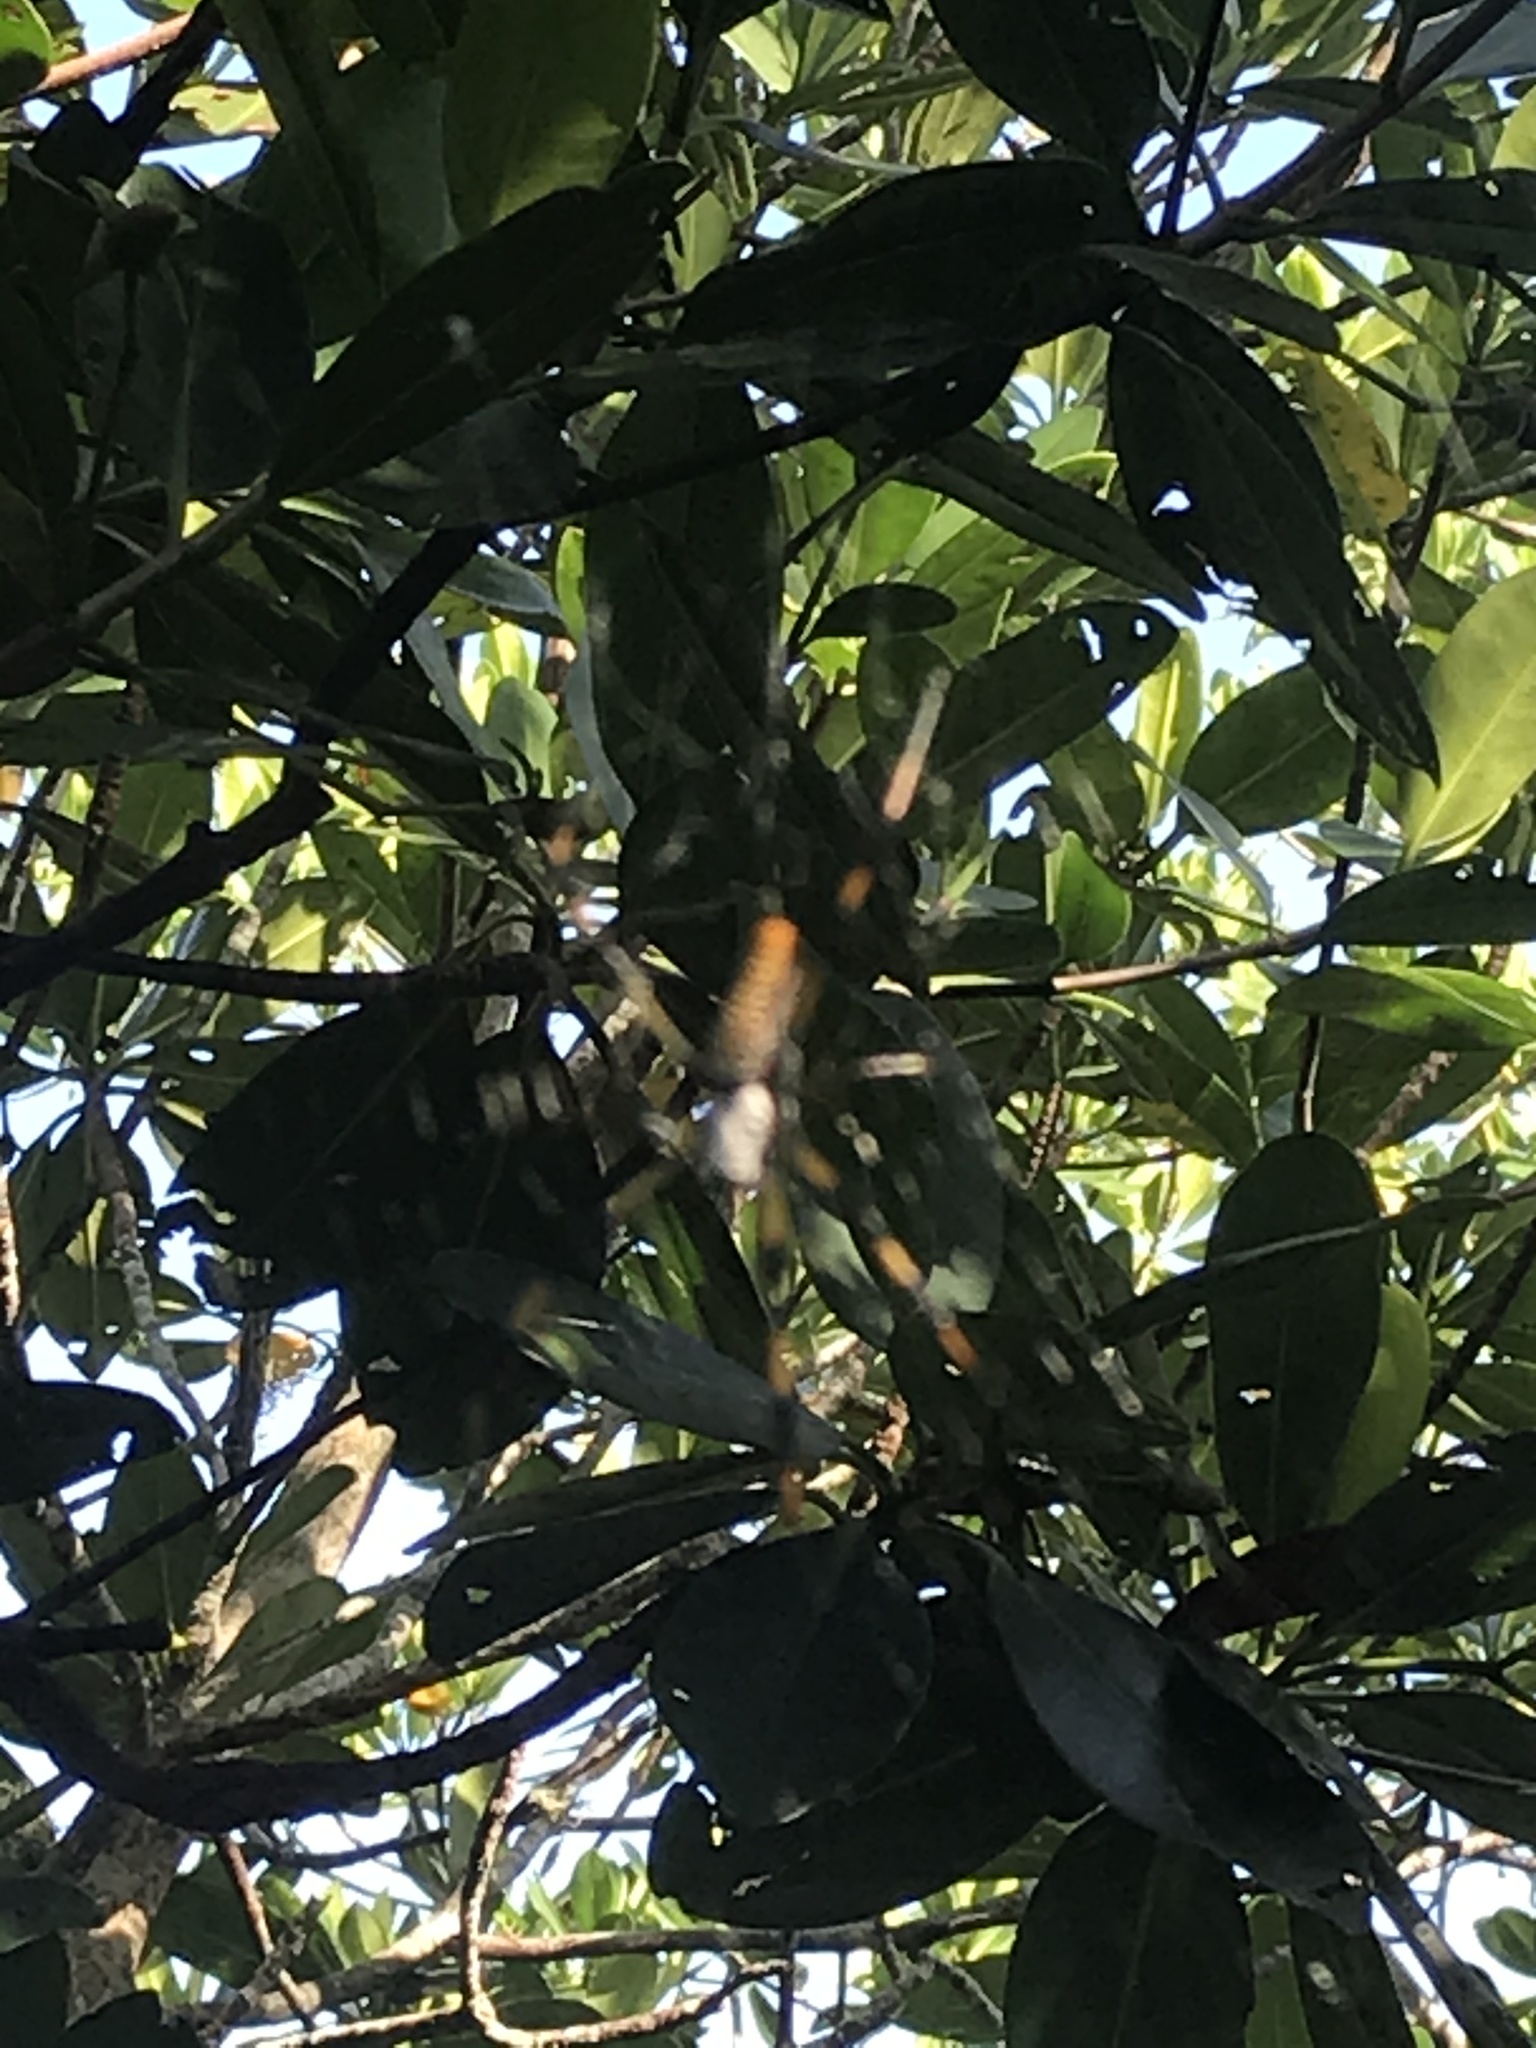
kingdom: Animalia
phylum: Arthropoda
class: Arachnida
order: Araneae
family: Araneidae
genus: Trichonephila
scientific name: Trichonephila clavipes
